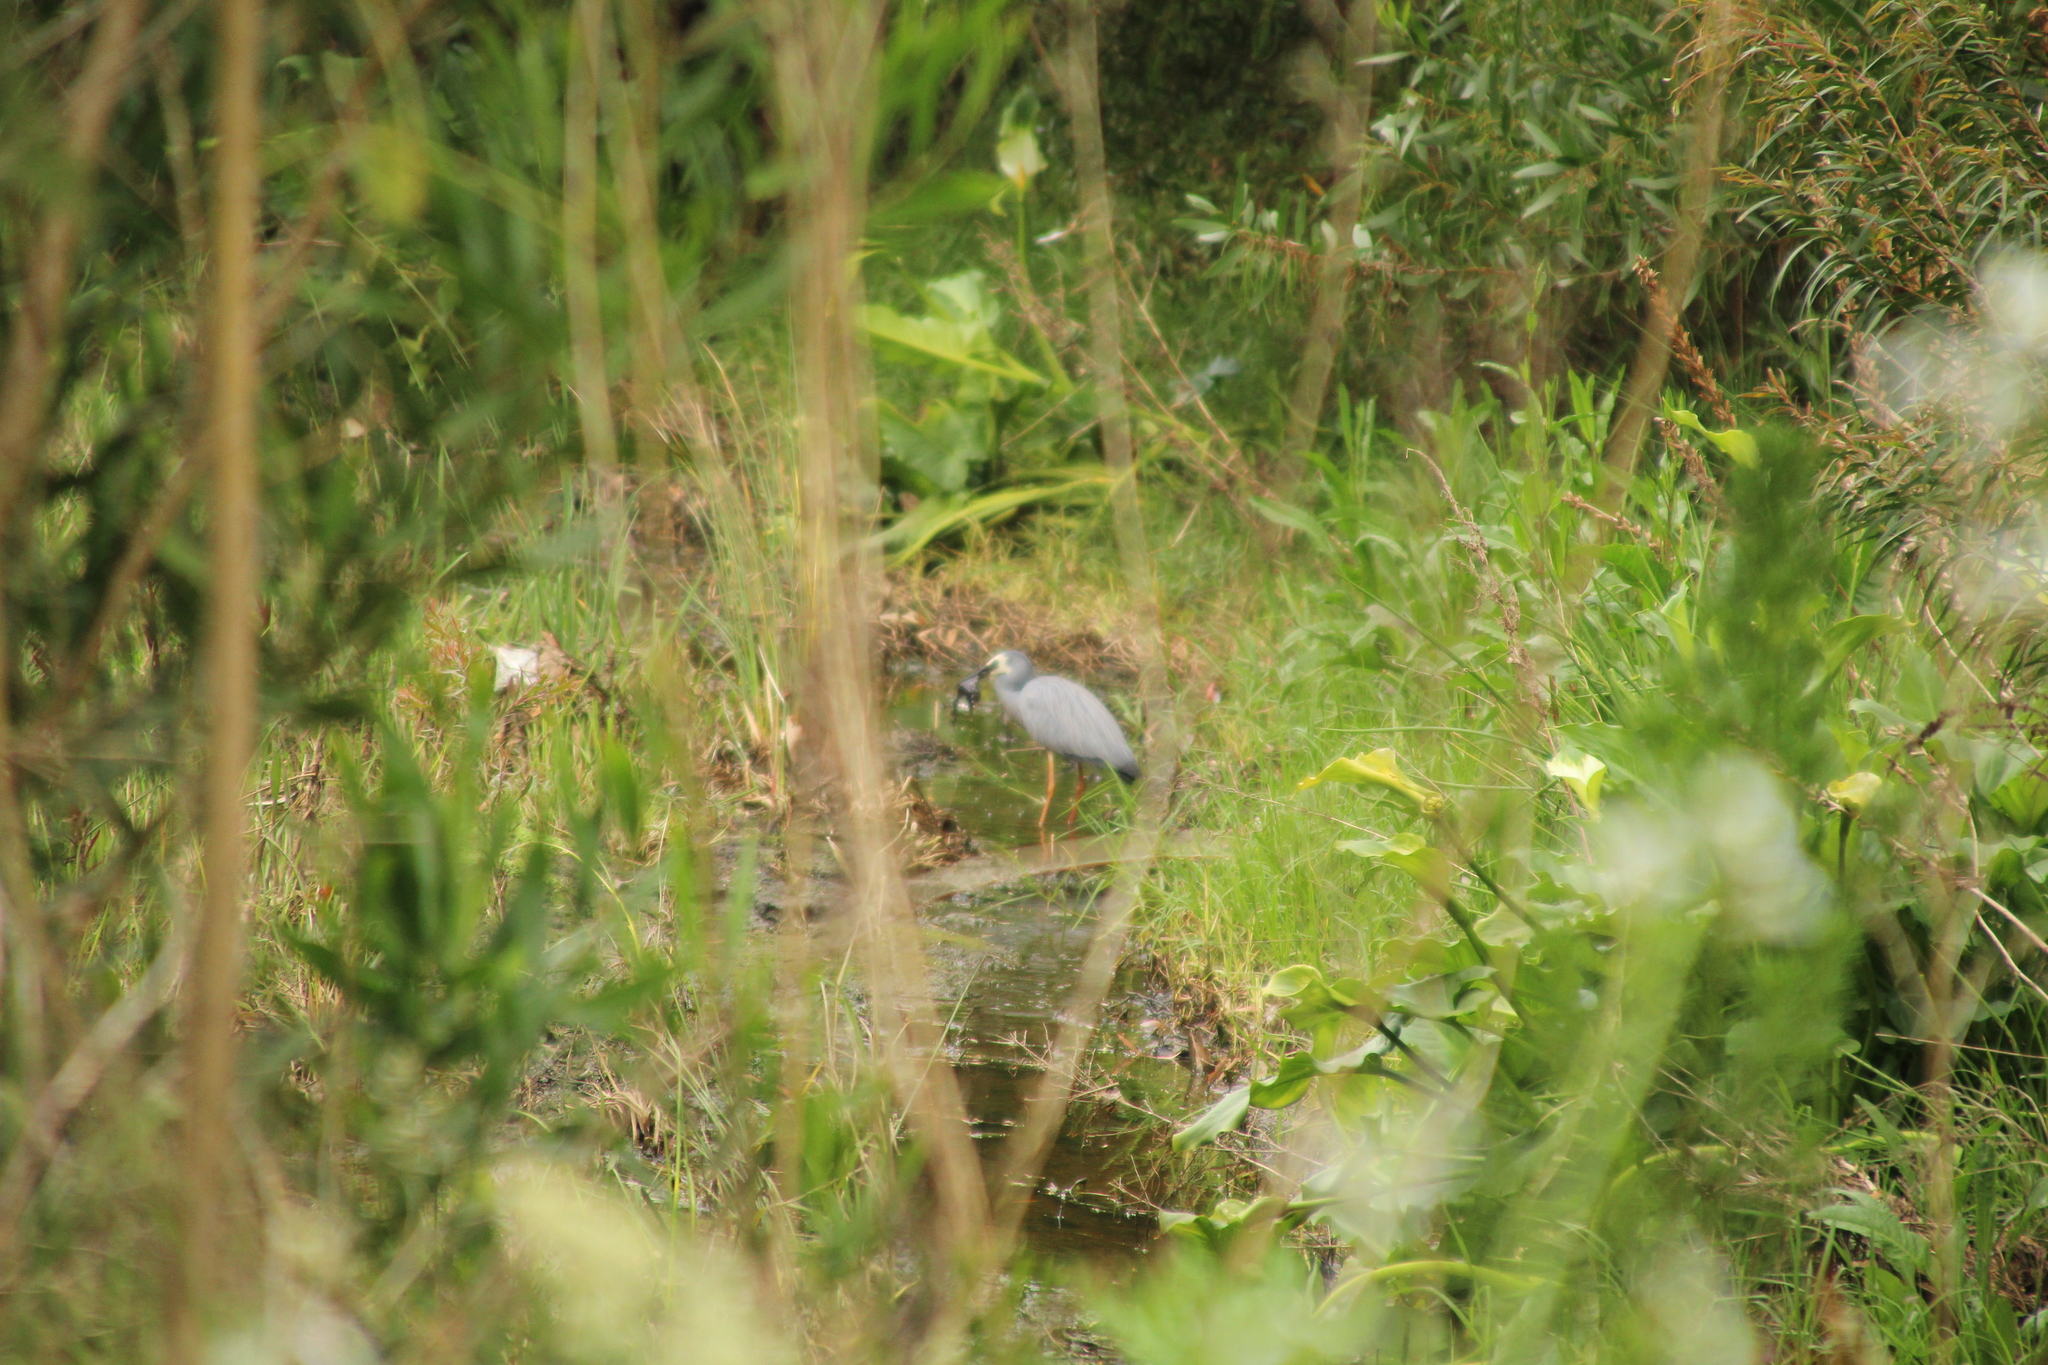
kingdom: Animalia
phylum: Chordata
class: Aves
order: Pelecaniformes
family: Ardeidae
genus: Egretta
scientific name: Egretta novaehollandiae
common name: White-faced heron
